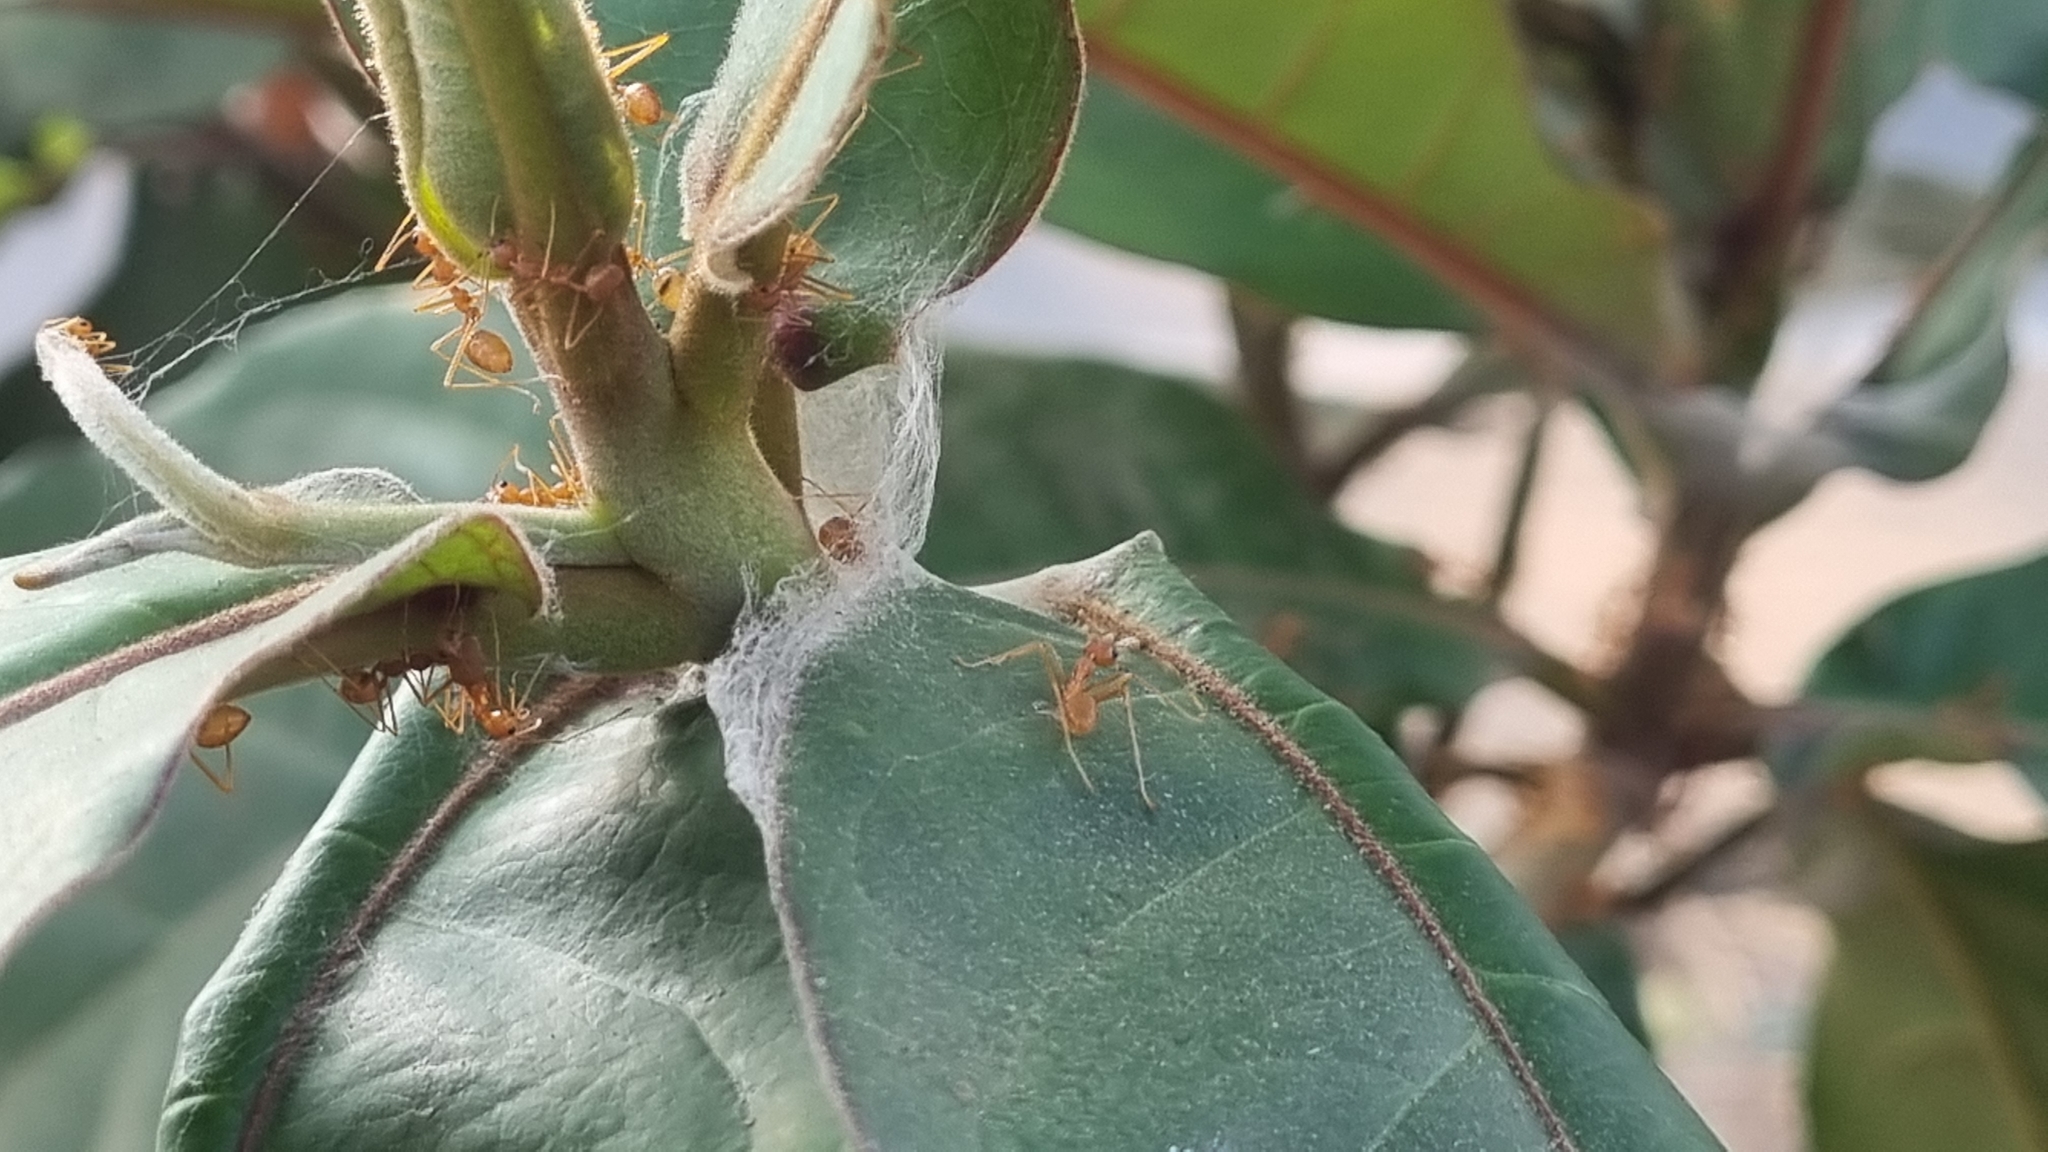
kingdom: Animalia
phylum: Arthropoda
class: Insecta
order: Hymenoptera
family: Formicidae
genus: Oecophylla
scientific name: Oecophylla smaragdina
